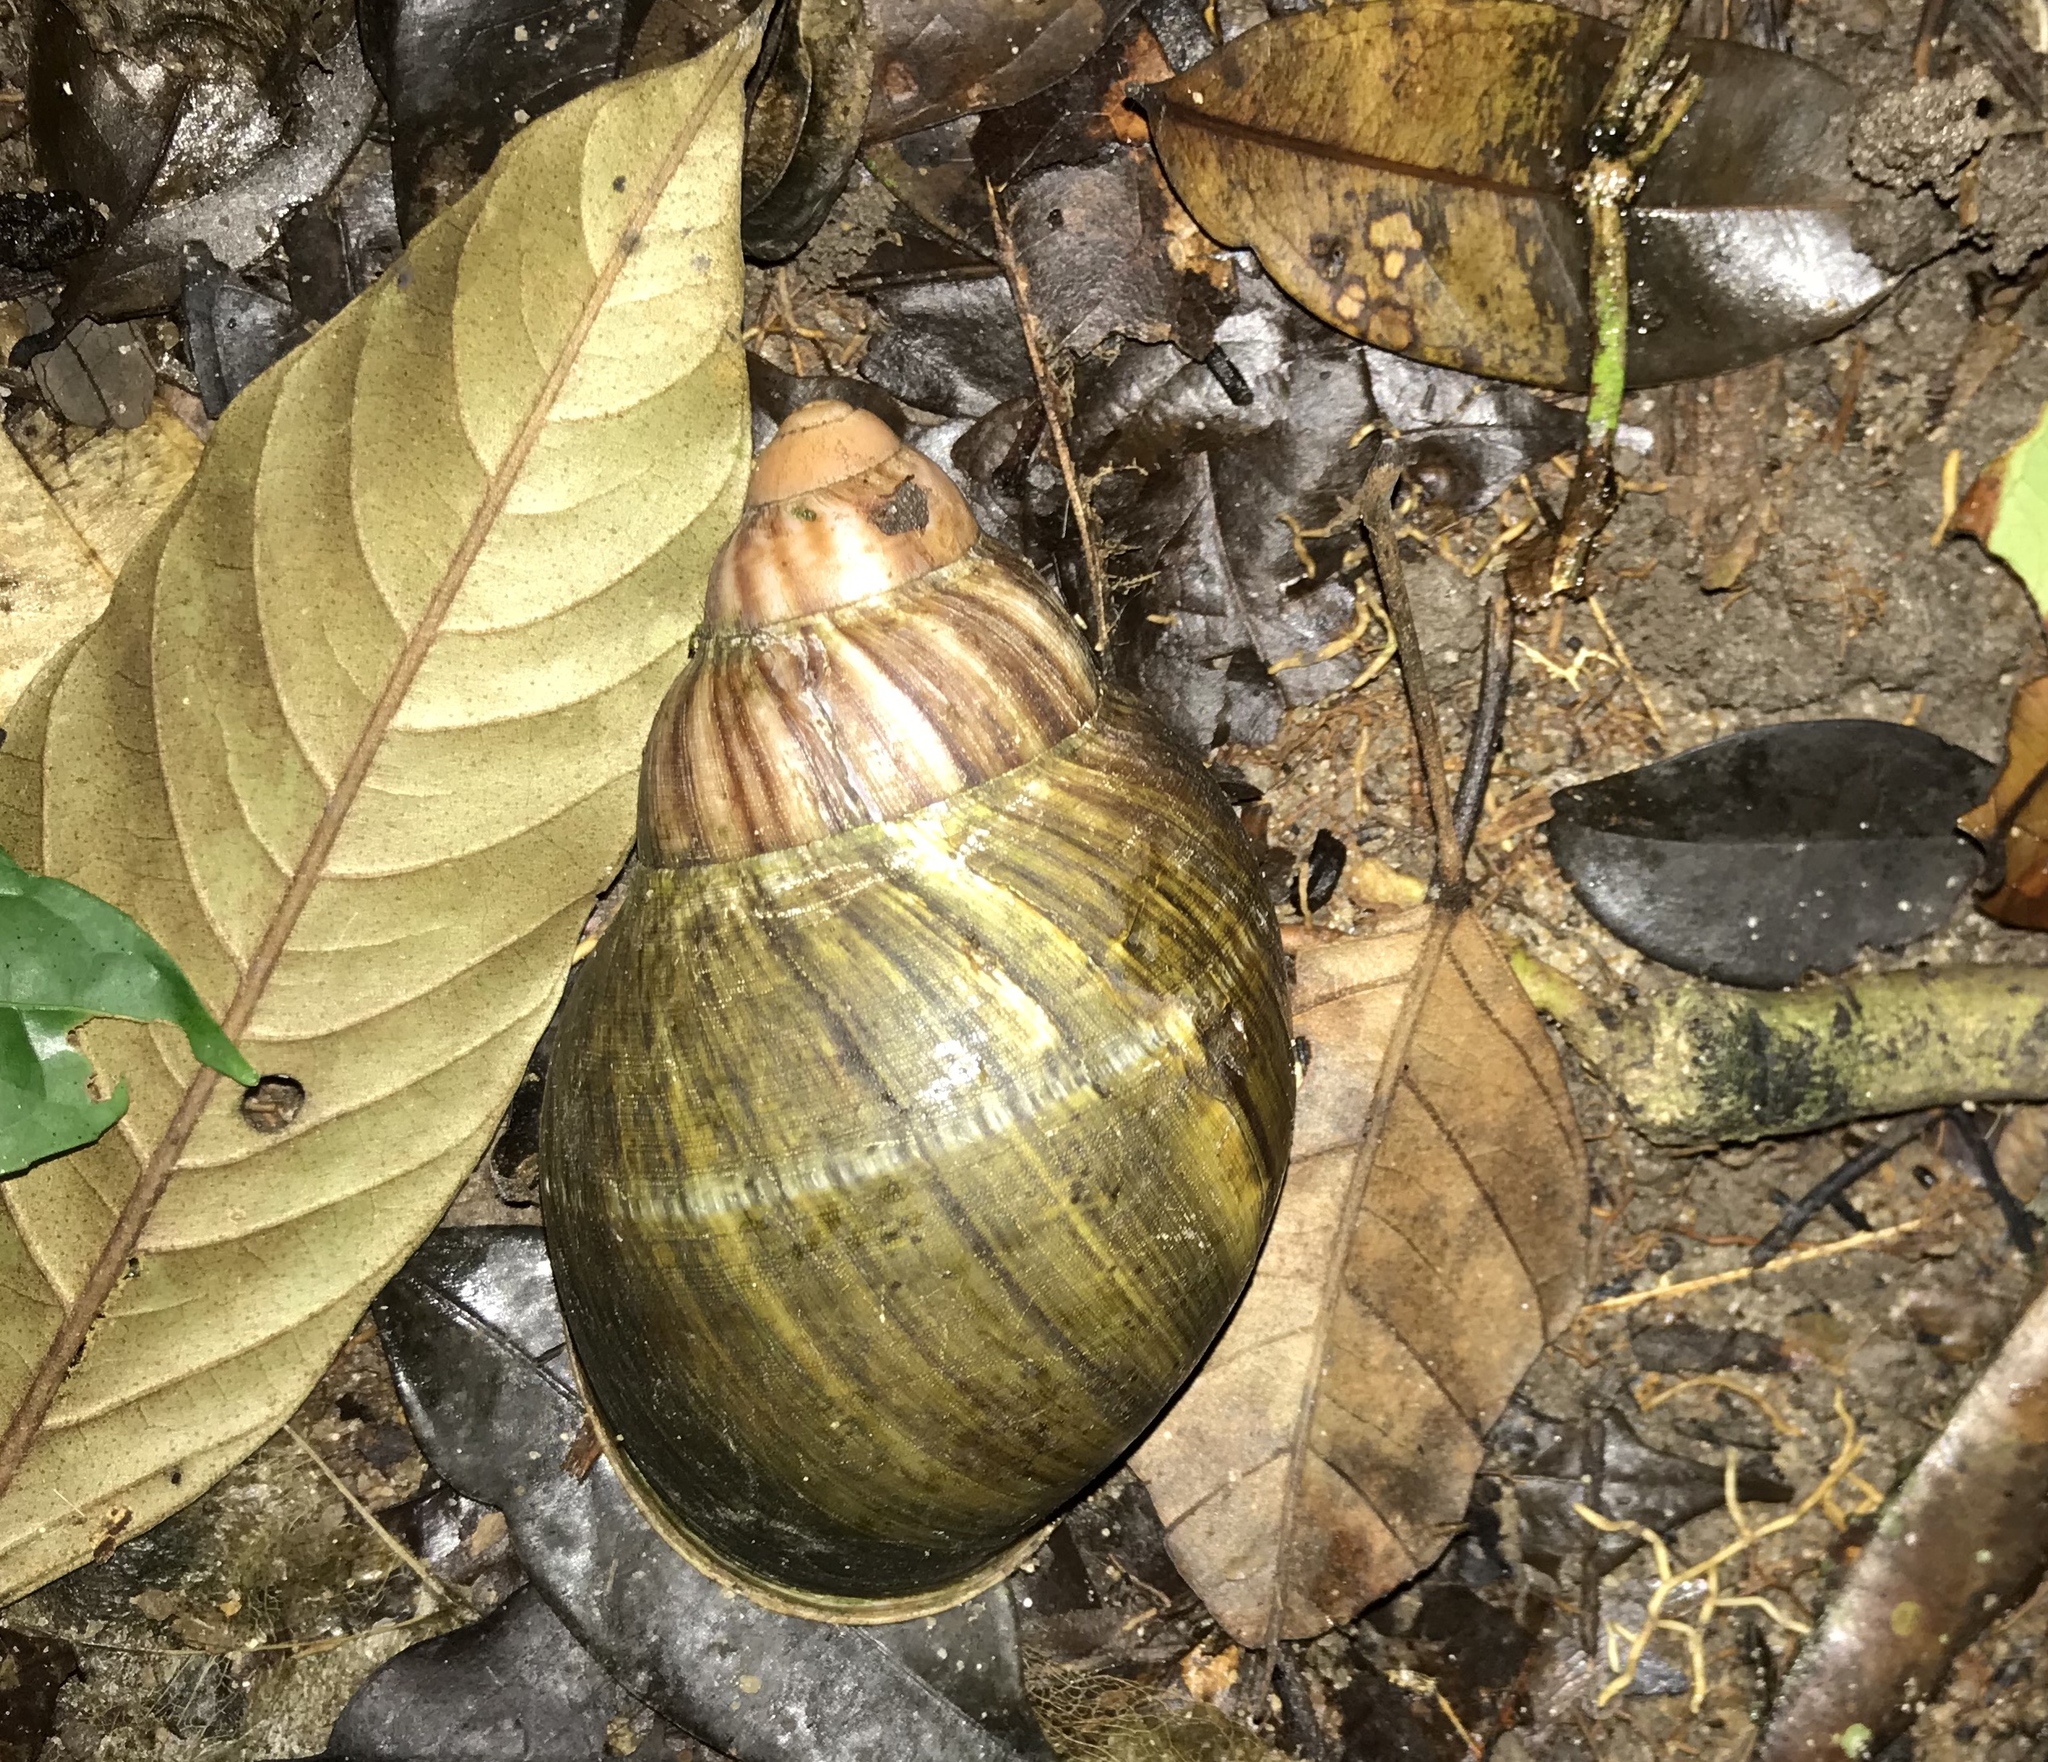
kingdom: Animalia
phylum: Mollusca
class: Gastropoda
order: Stylommatophora
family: Achatinidae
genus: Archachatina
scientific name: Archachatina ventricosa
